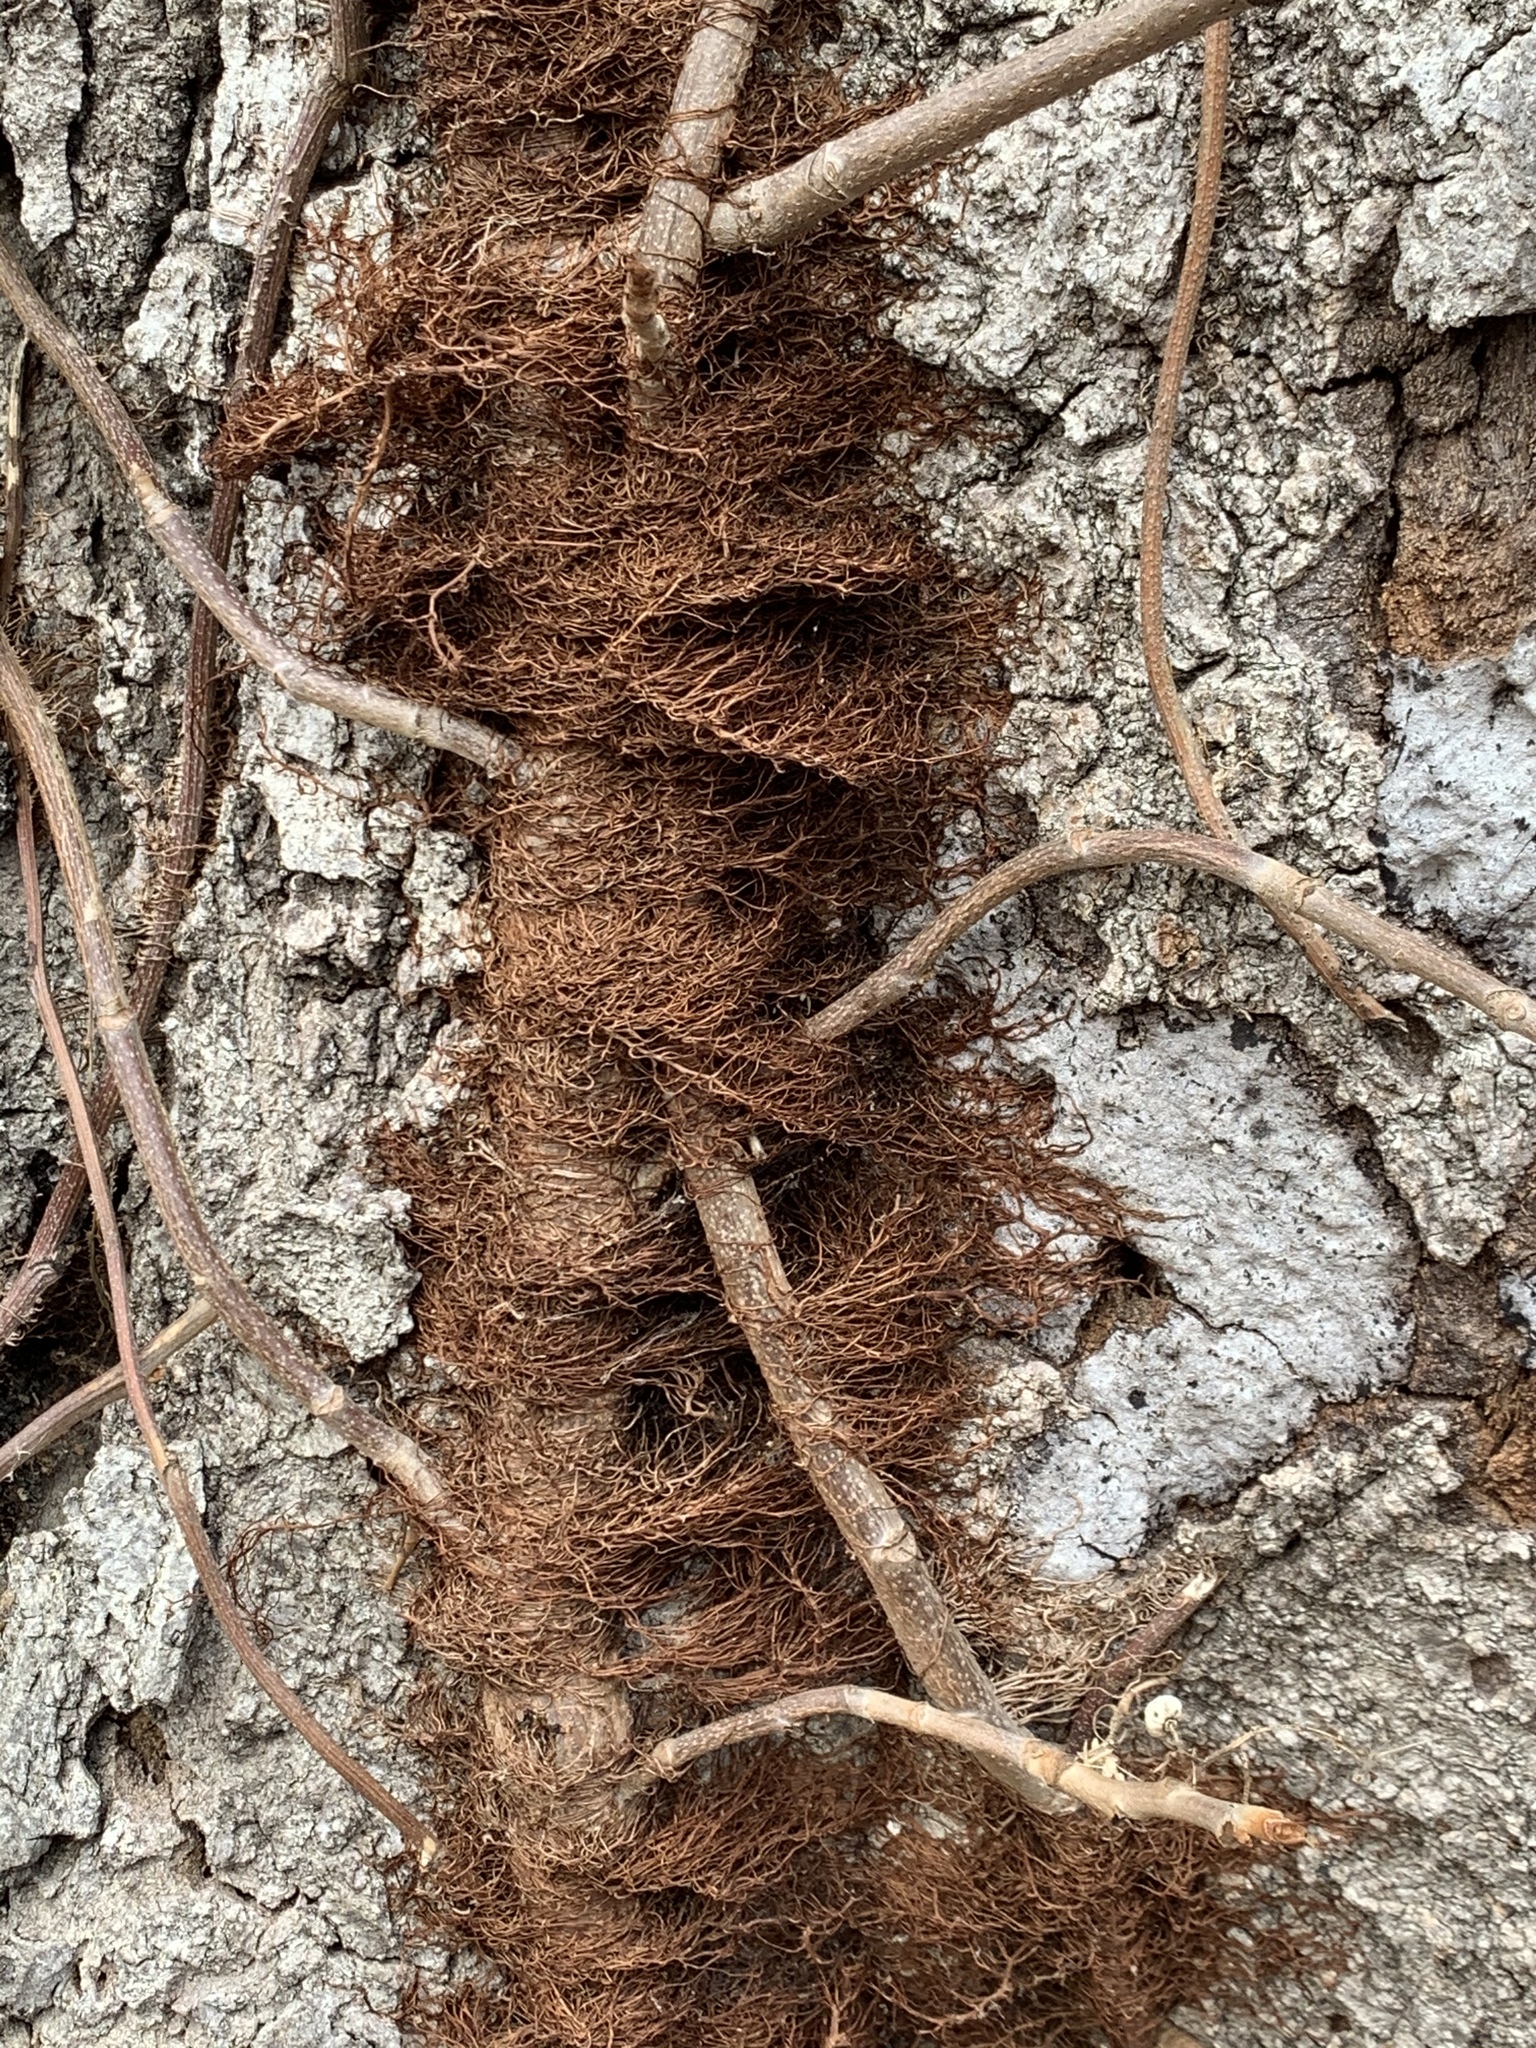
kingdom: Plantae
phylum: Tracheophyta
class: Magnoliopsida
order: Sapindales
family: Anacardiaceae
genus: Toxicodendron
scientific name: Toxicodendron radicans
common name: Poison ivy
